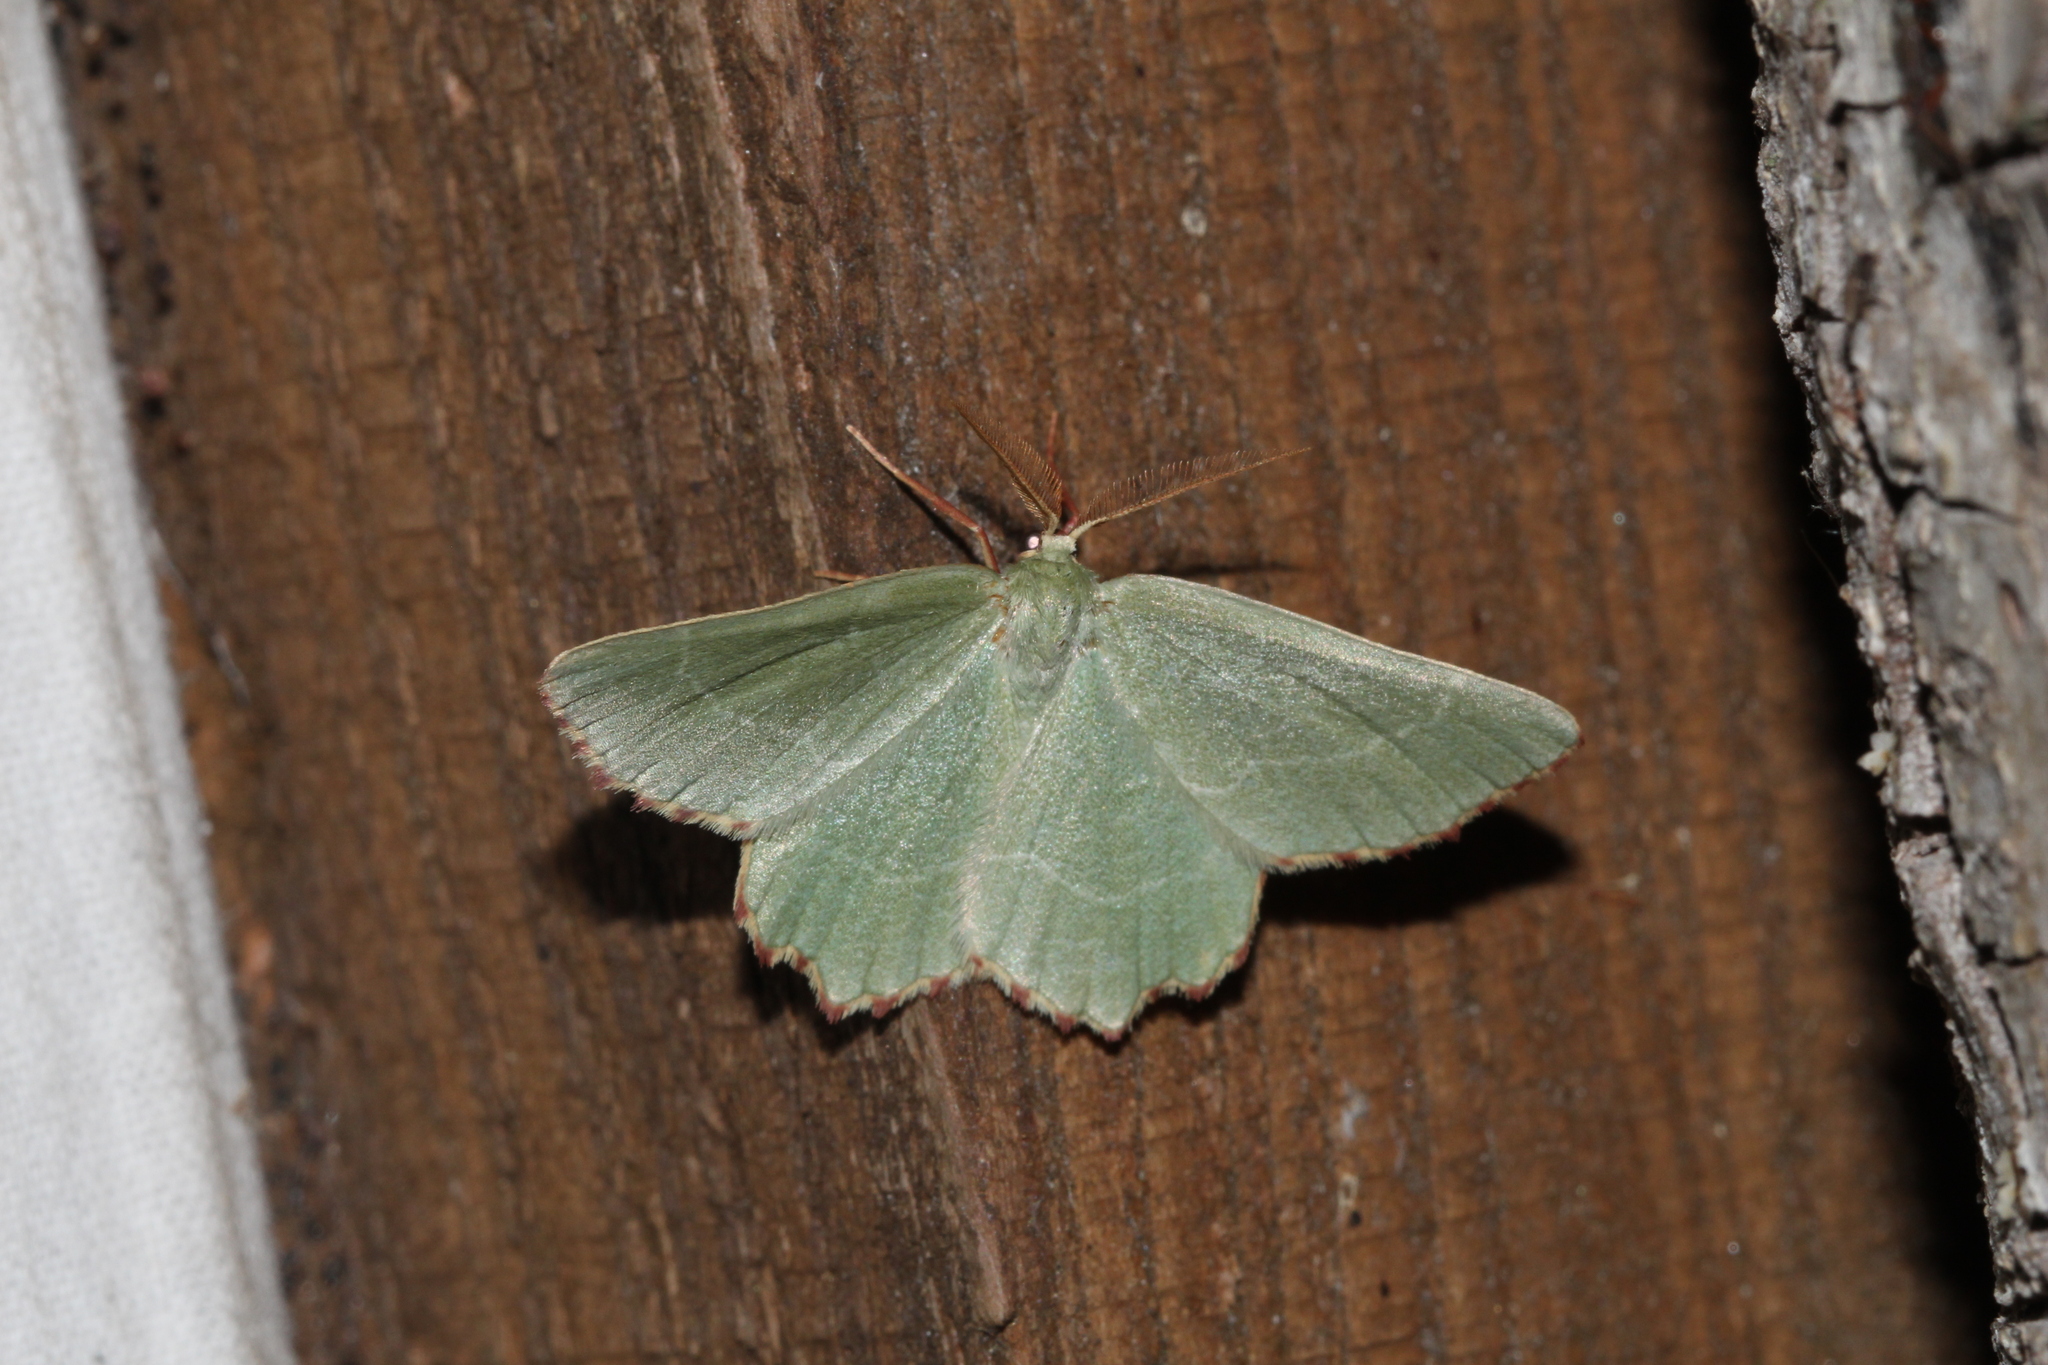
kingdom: Animalia
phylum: Arthropoda
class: Insecta
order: Lepidoptera
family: Geometridae
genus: Thalera
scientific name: Thalera fimbrialis
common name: Sussex emerald
